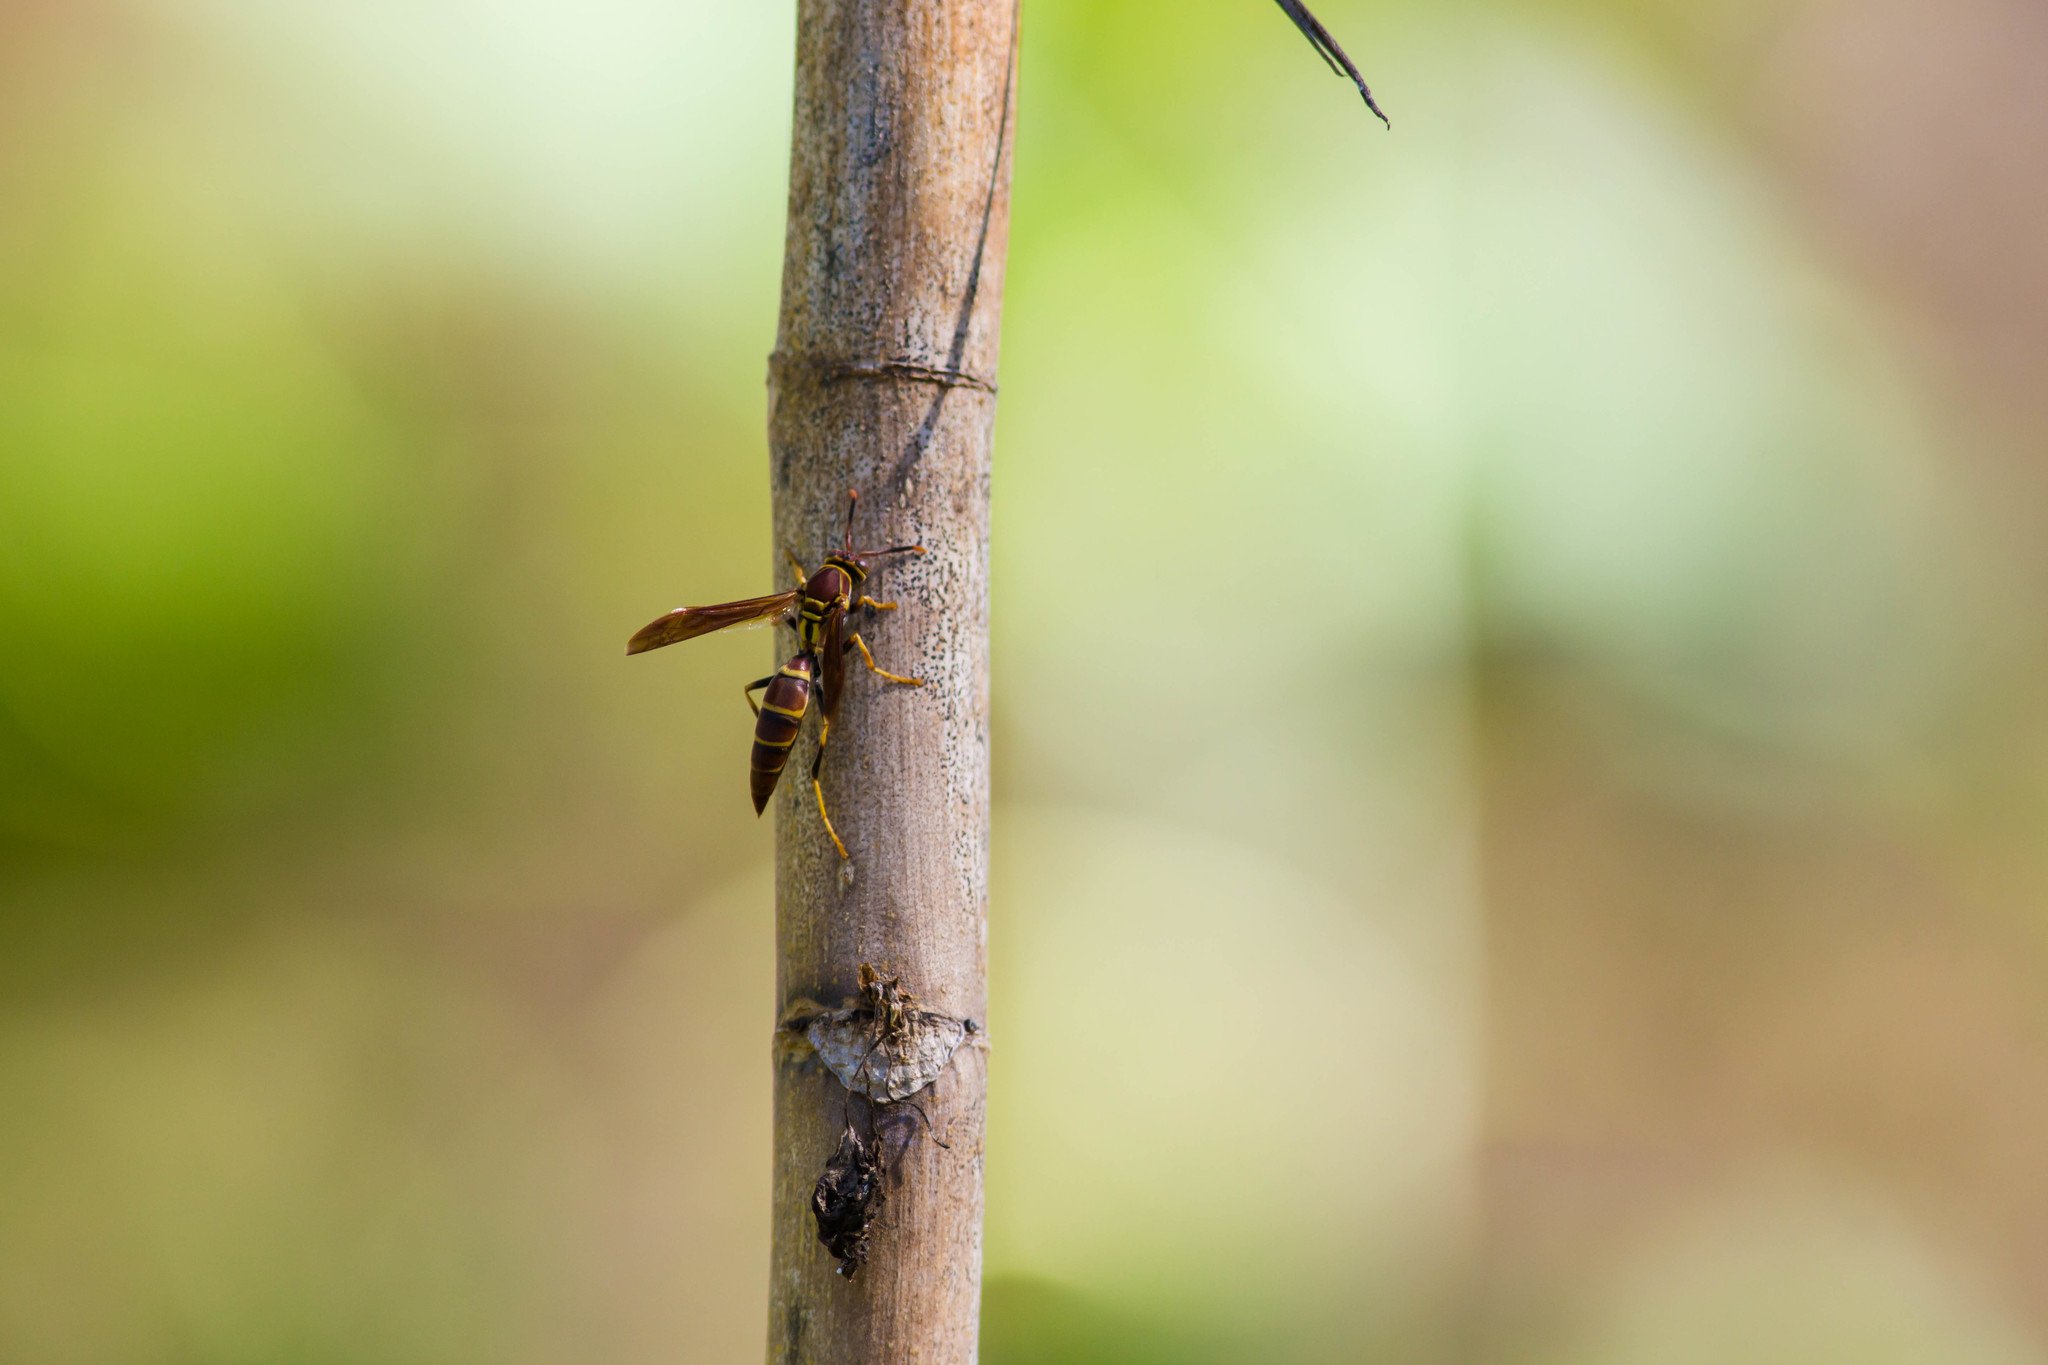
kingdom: Animalia
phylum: Arthropoda
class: Insecta
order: Hymenoptera
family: Eumenidae
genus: Polistes
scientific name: Polistes instabilis
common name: Unstable paper wasp
